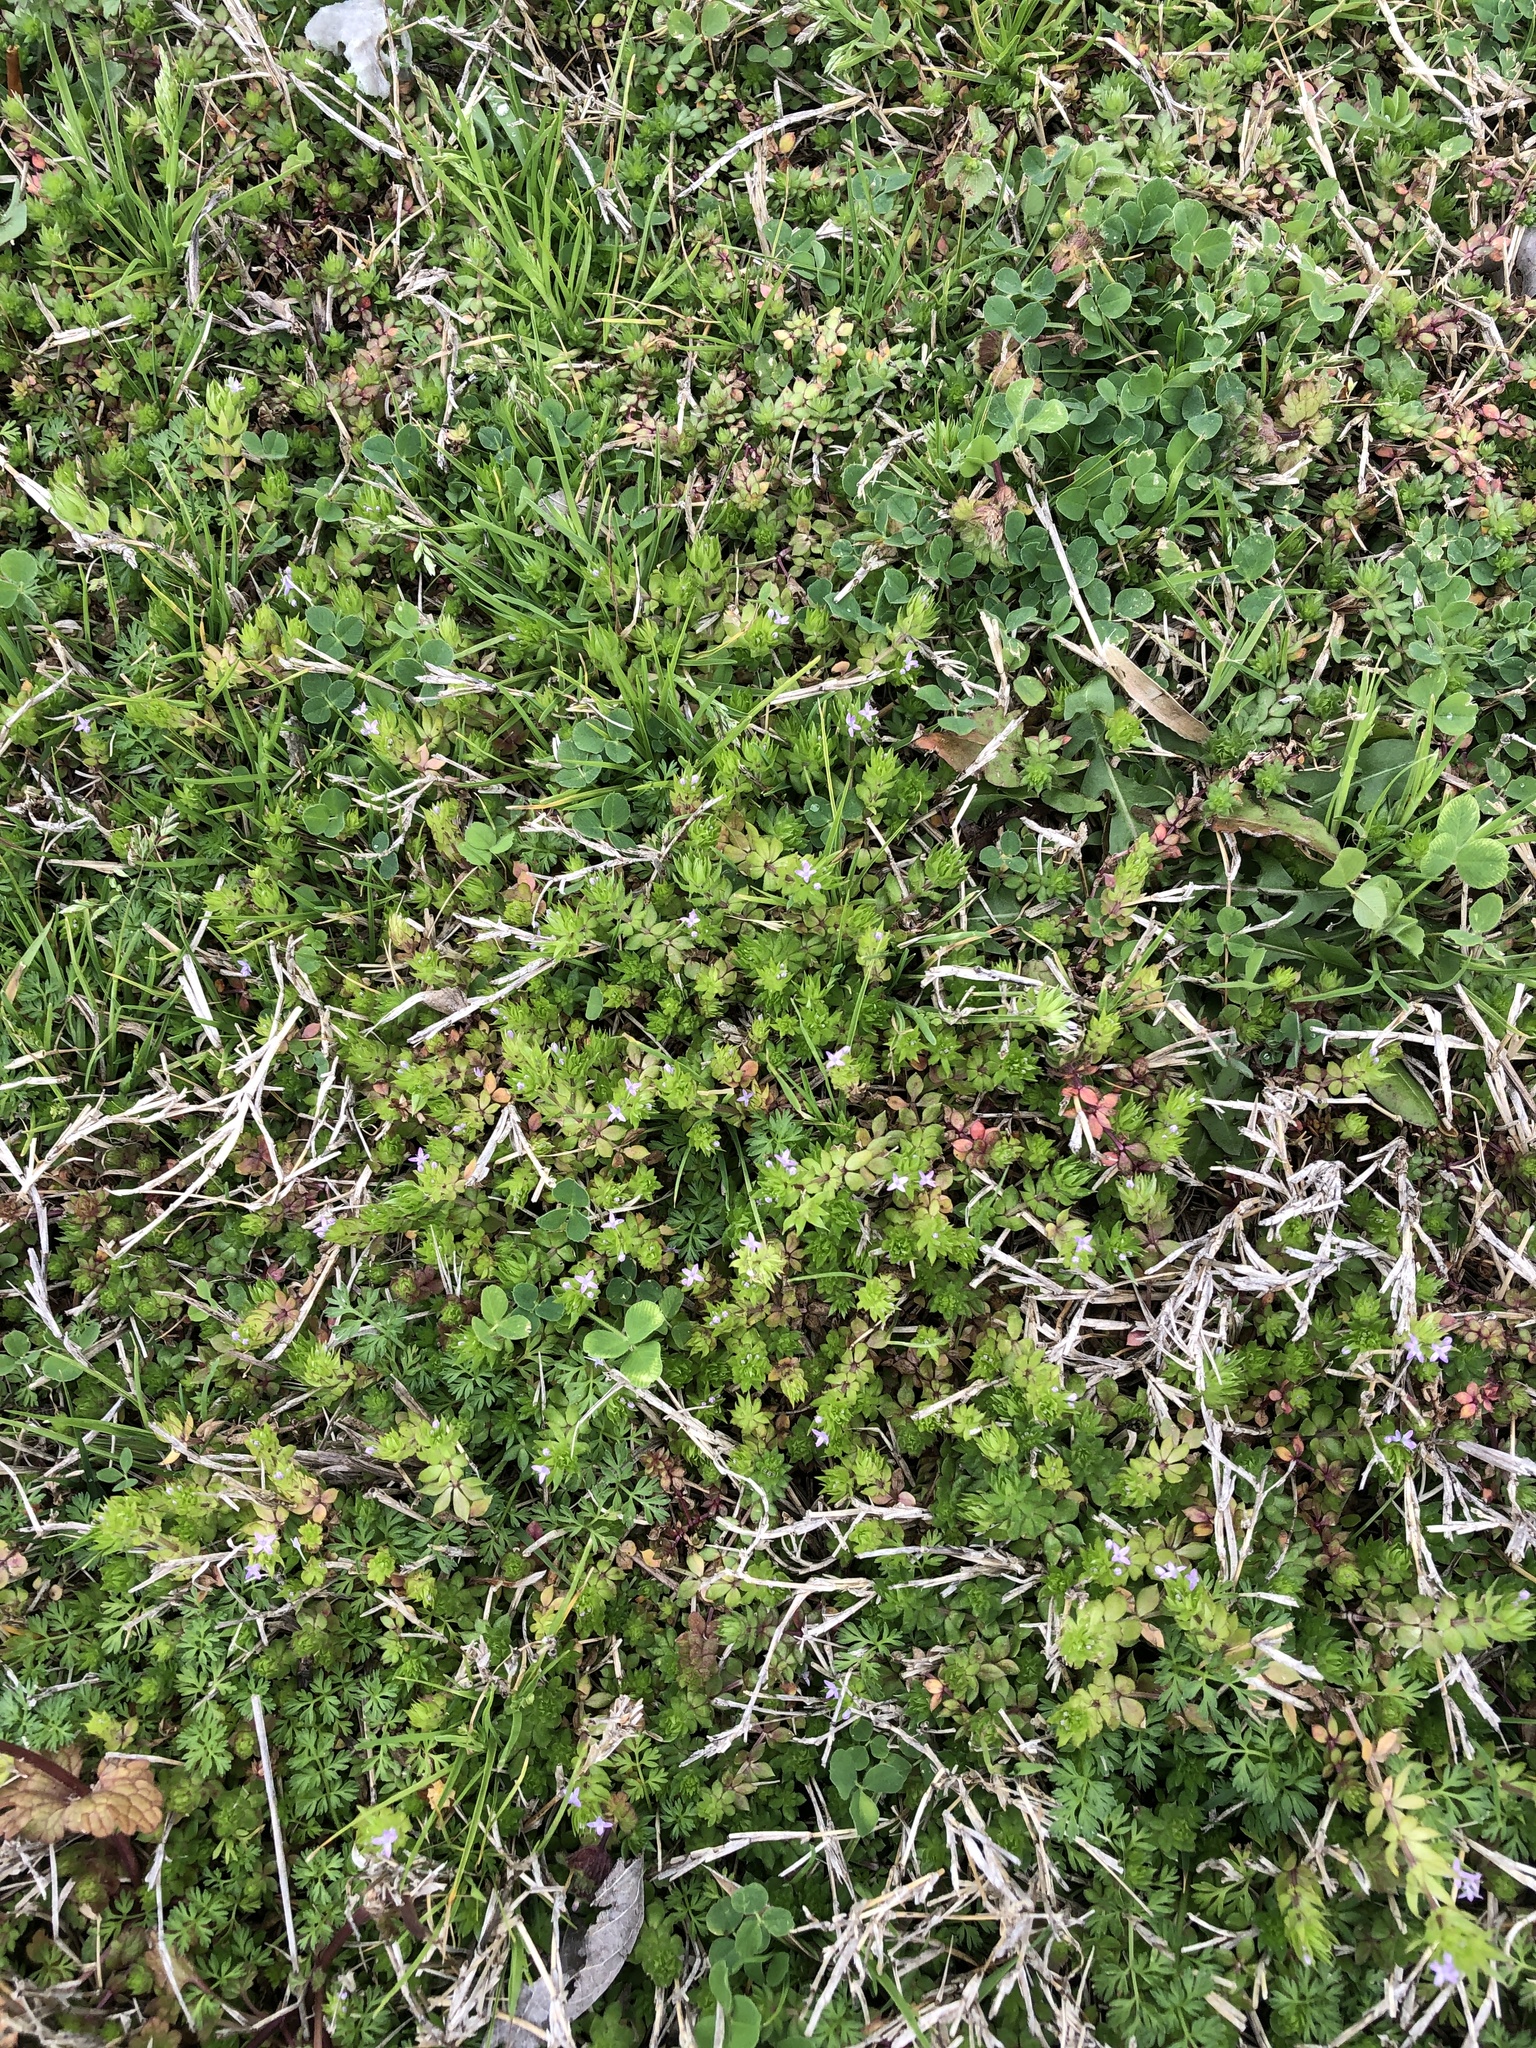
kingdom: Plantae
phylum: Tracheophyta
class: Magnoliopsida
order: Gentianales
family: Rubiaceae
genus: Sherardia
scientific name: Sherardia arvensis
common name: Field madder
